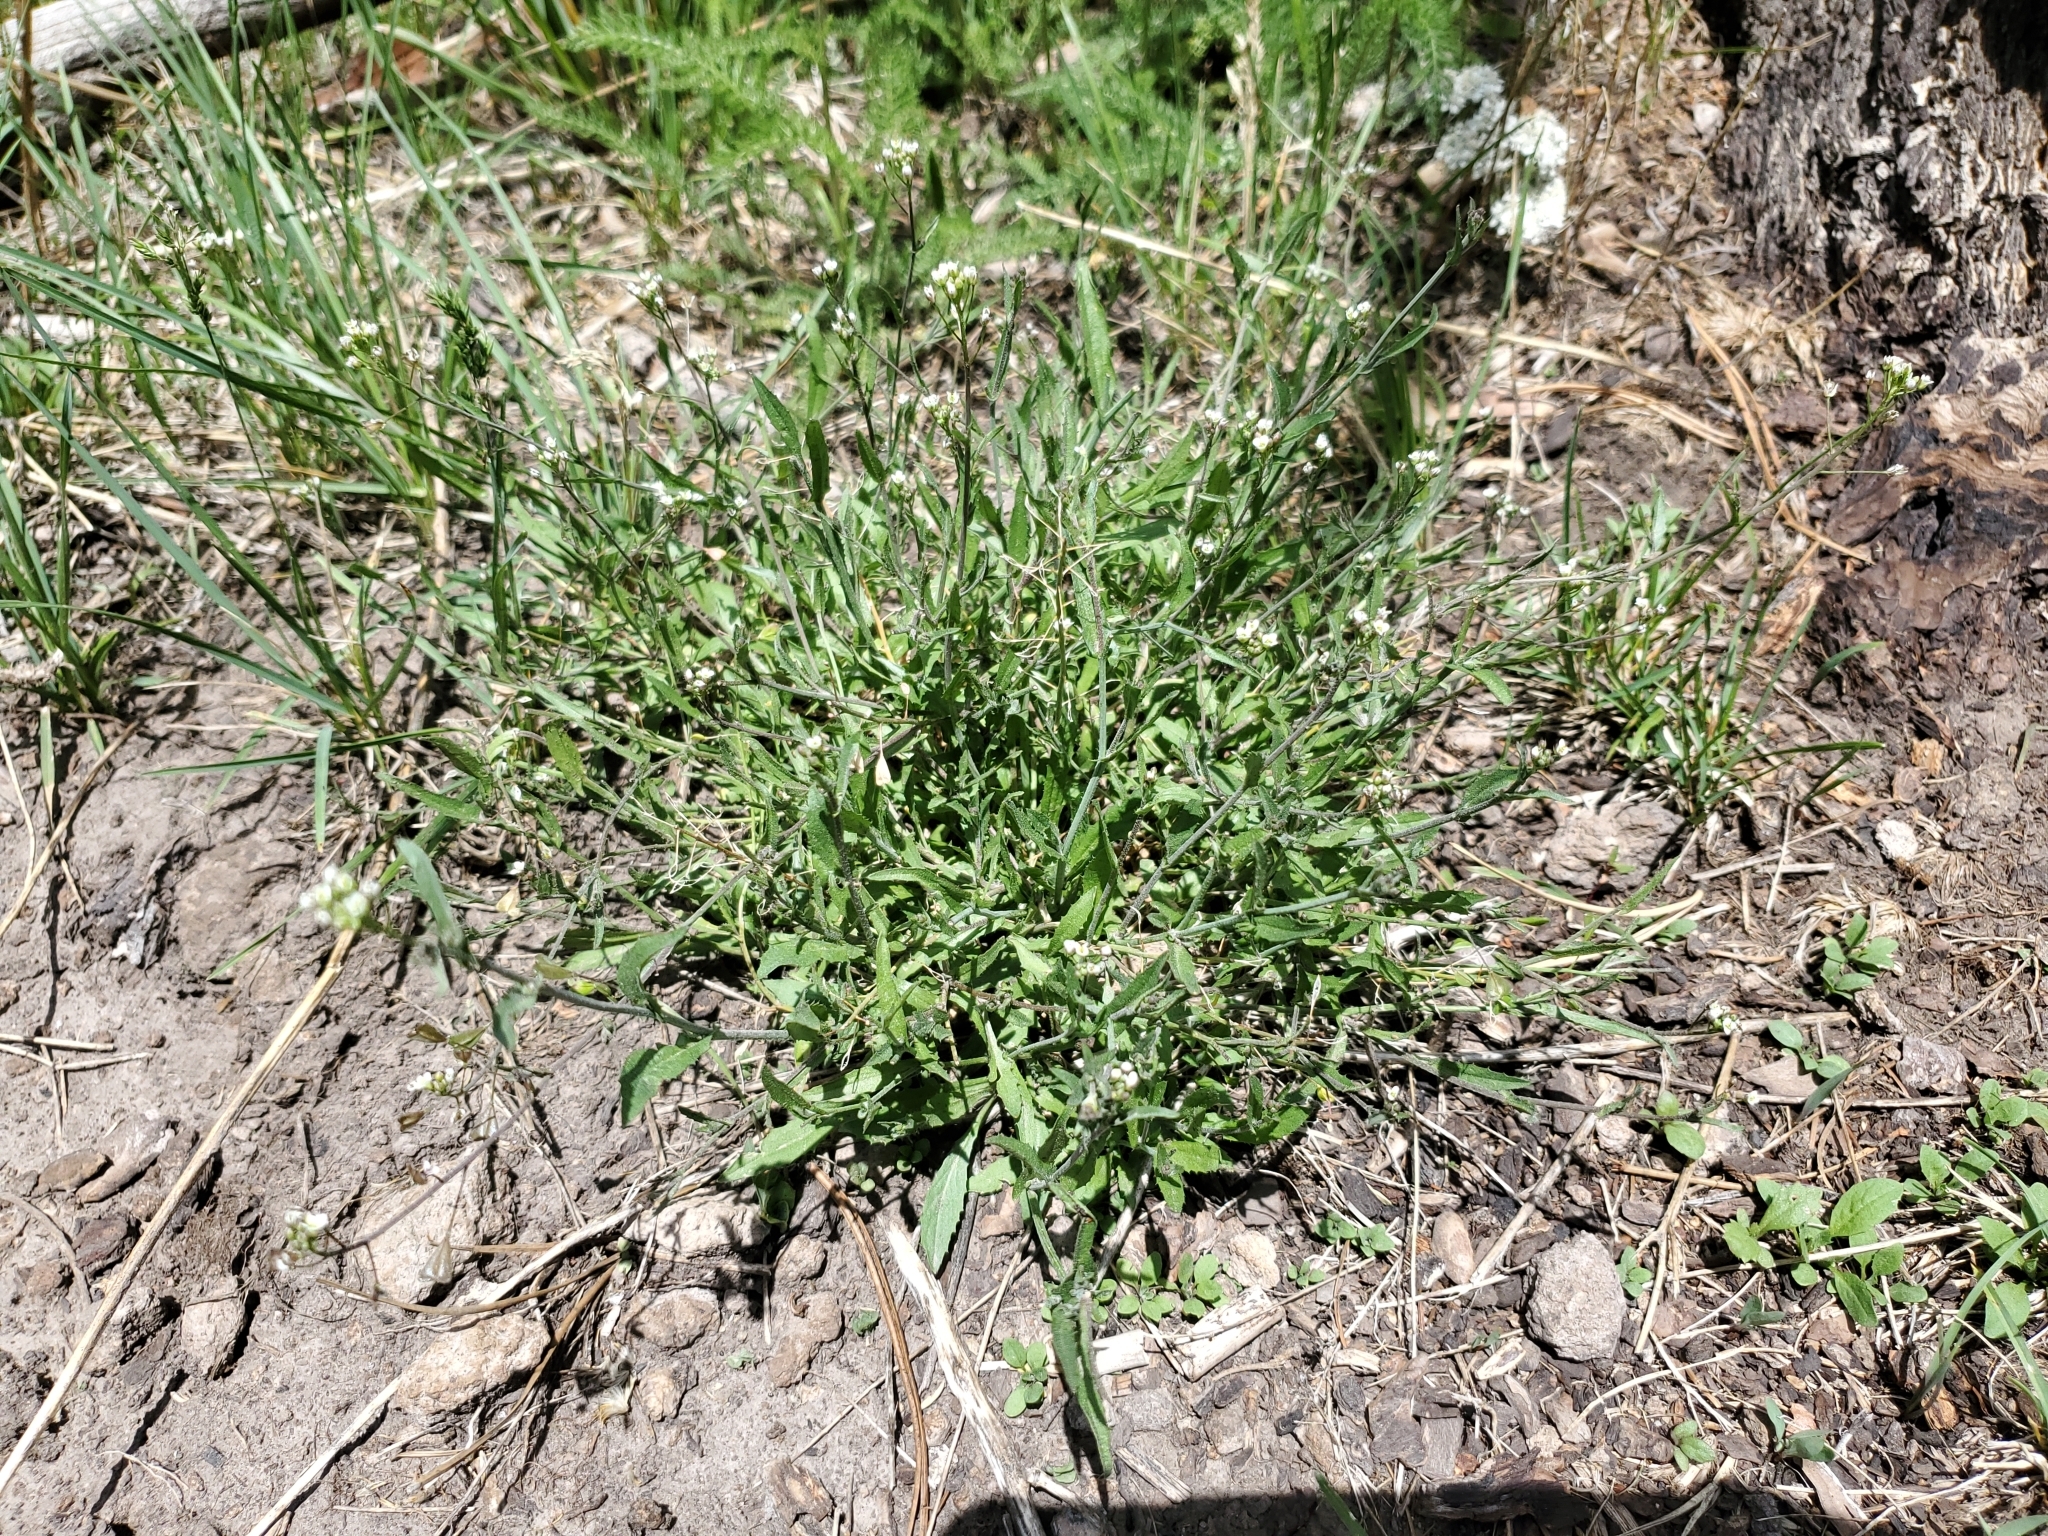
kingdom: Plantae
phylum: Tracheophyta
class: Magnoliopsida
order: Brassicales
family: Brassicaceae
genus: Capsella
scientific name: Capsella bursa-pastoris
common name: Shepherd's purse
